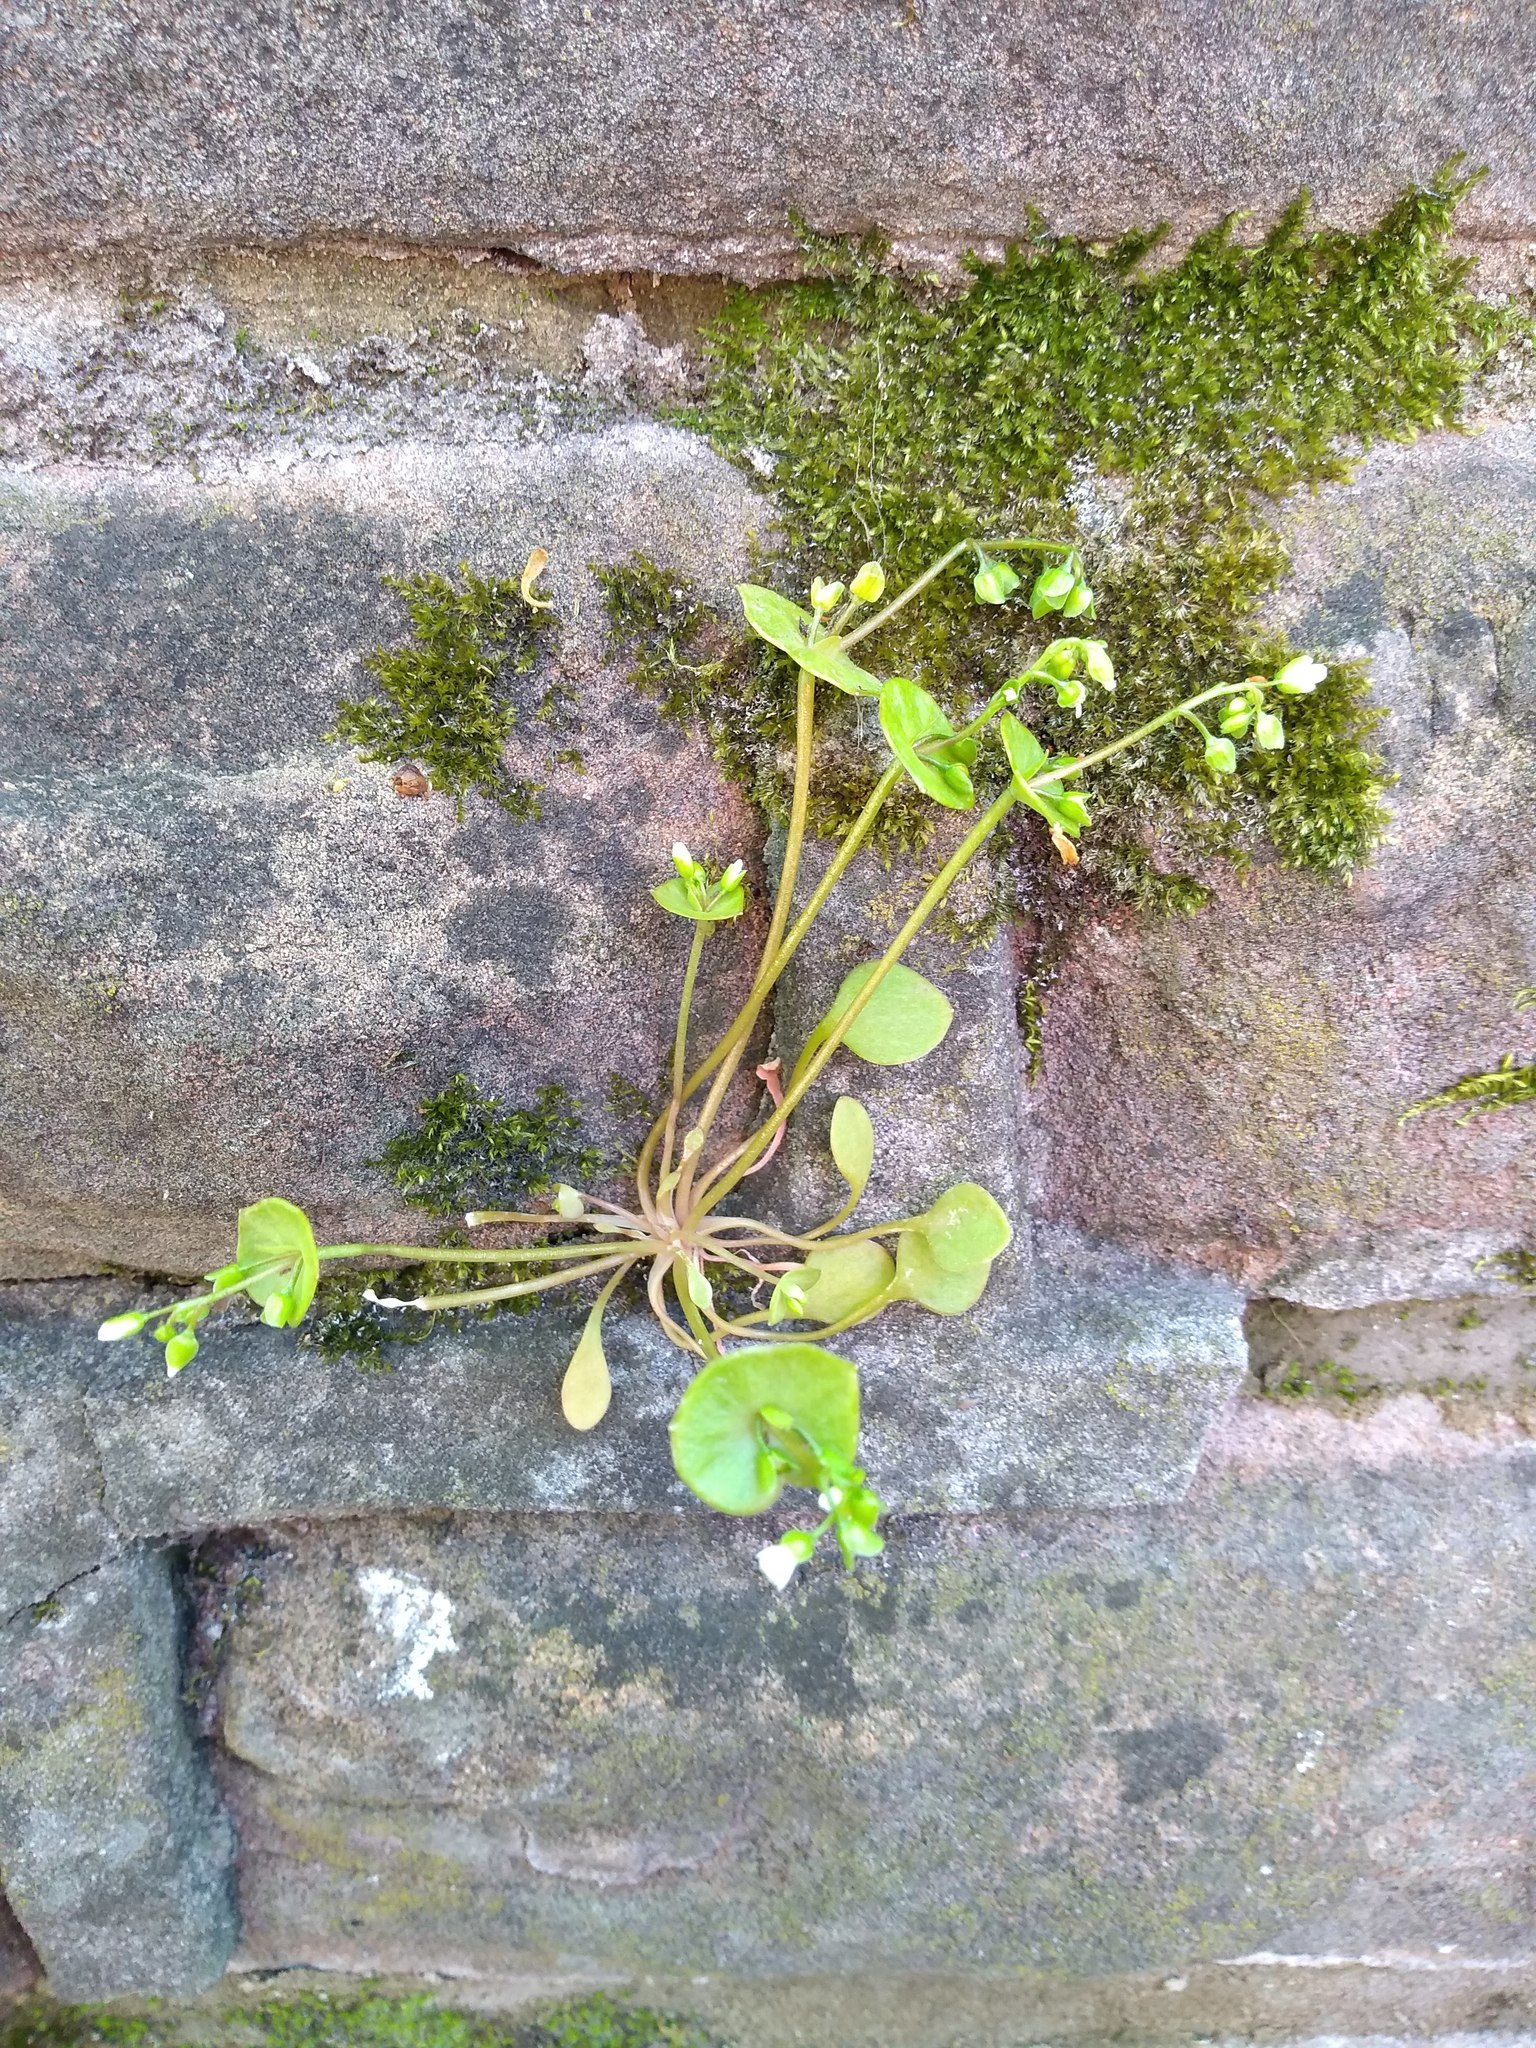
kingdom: Plantae
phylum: Tracheophyta
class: Magnoliopsida
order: Caryophyllales
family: Montiaceae
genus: Claytonia
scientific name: Claytonia perfoliata
